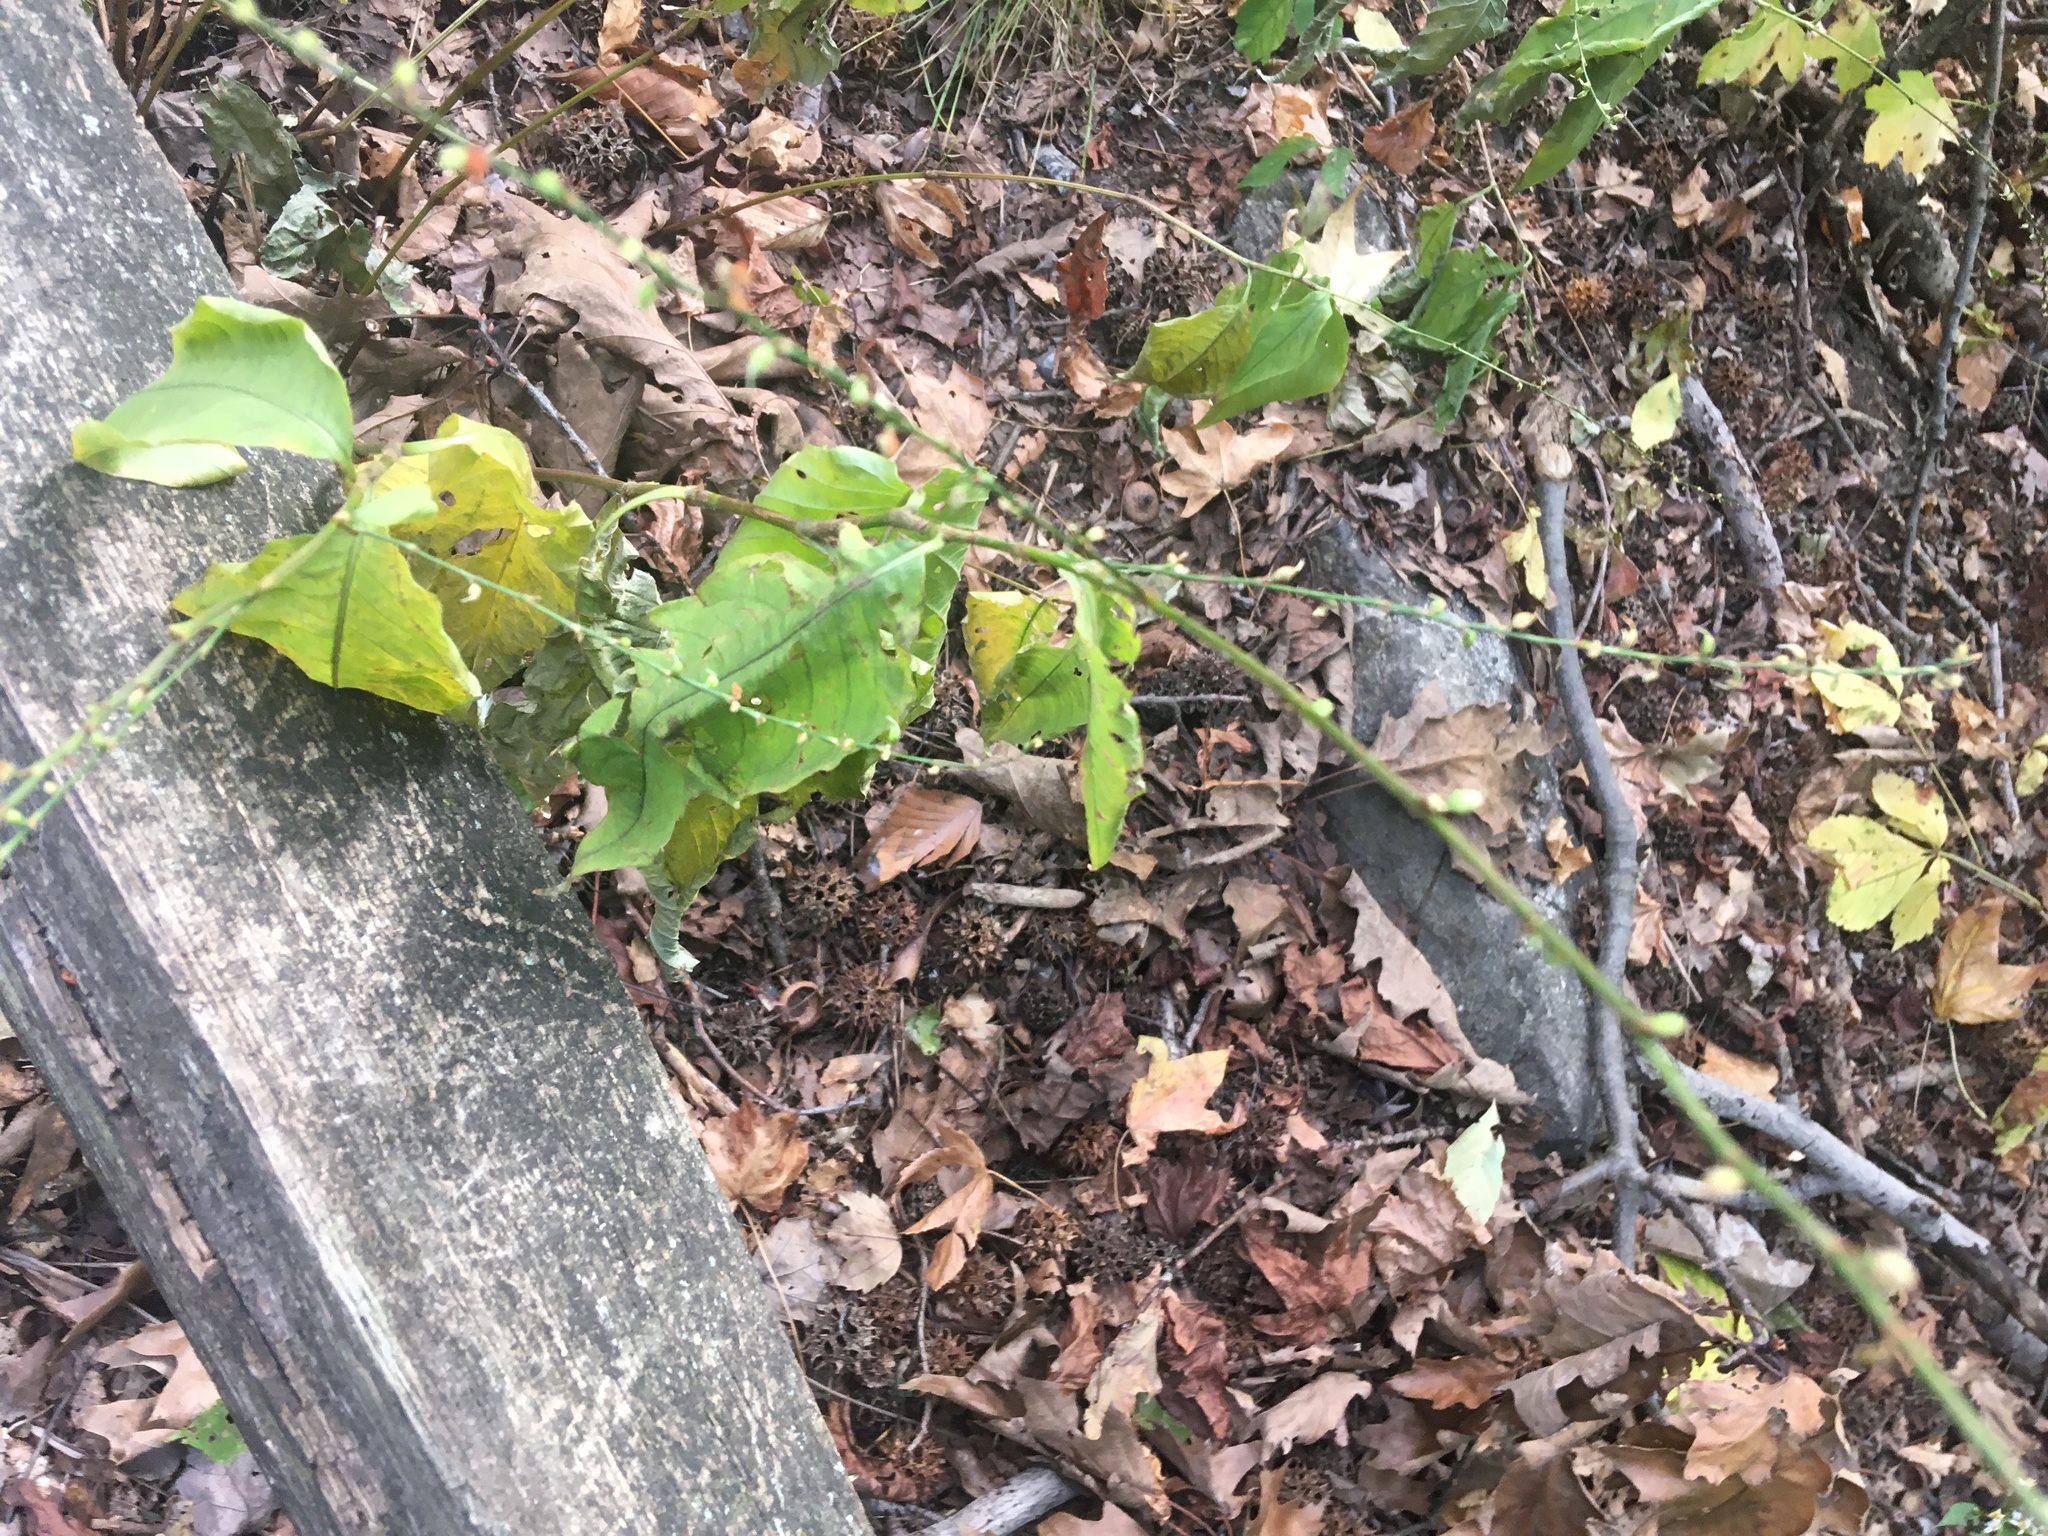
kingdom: Plantae
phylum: Tracheophyta
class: Magnoliopsida
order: Caryophyllales
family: Polygonaceae
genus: Persicaria
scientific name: Persicaria virginiana
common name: Jumpseed
